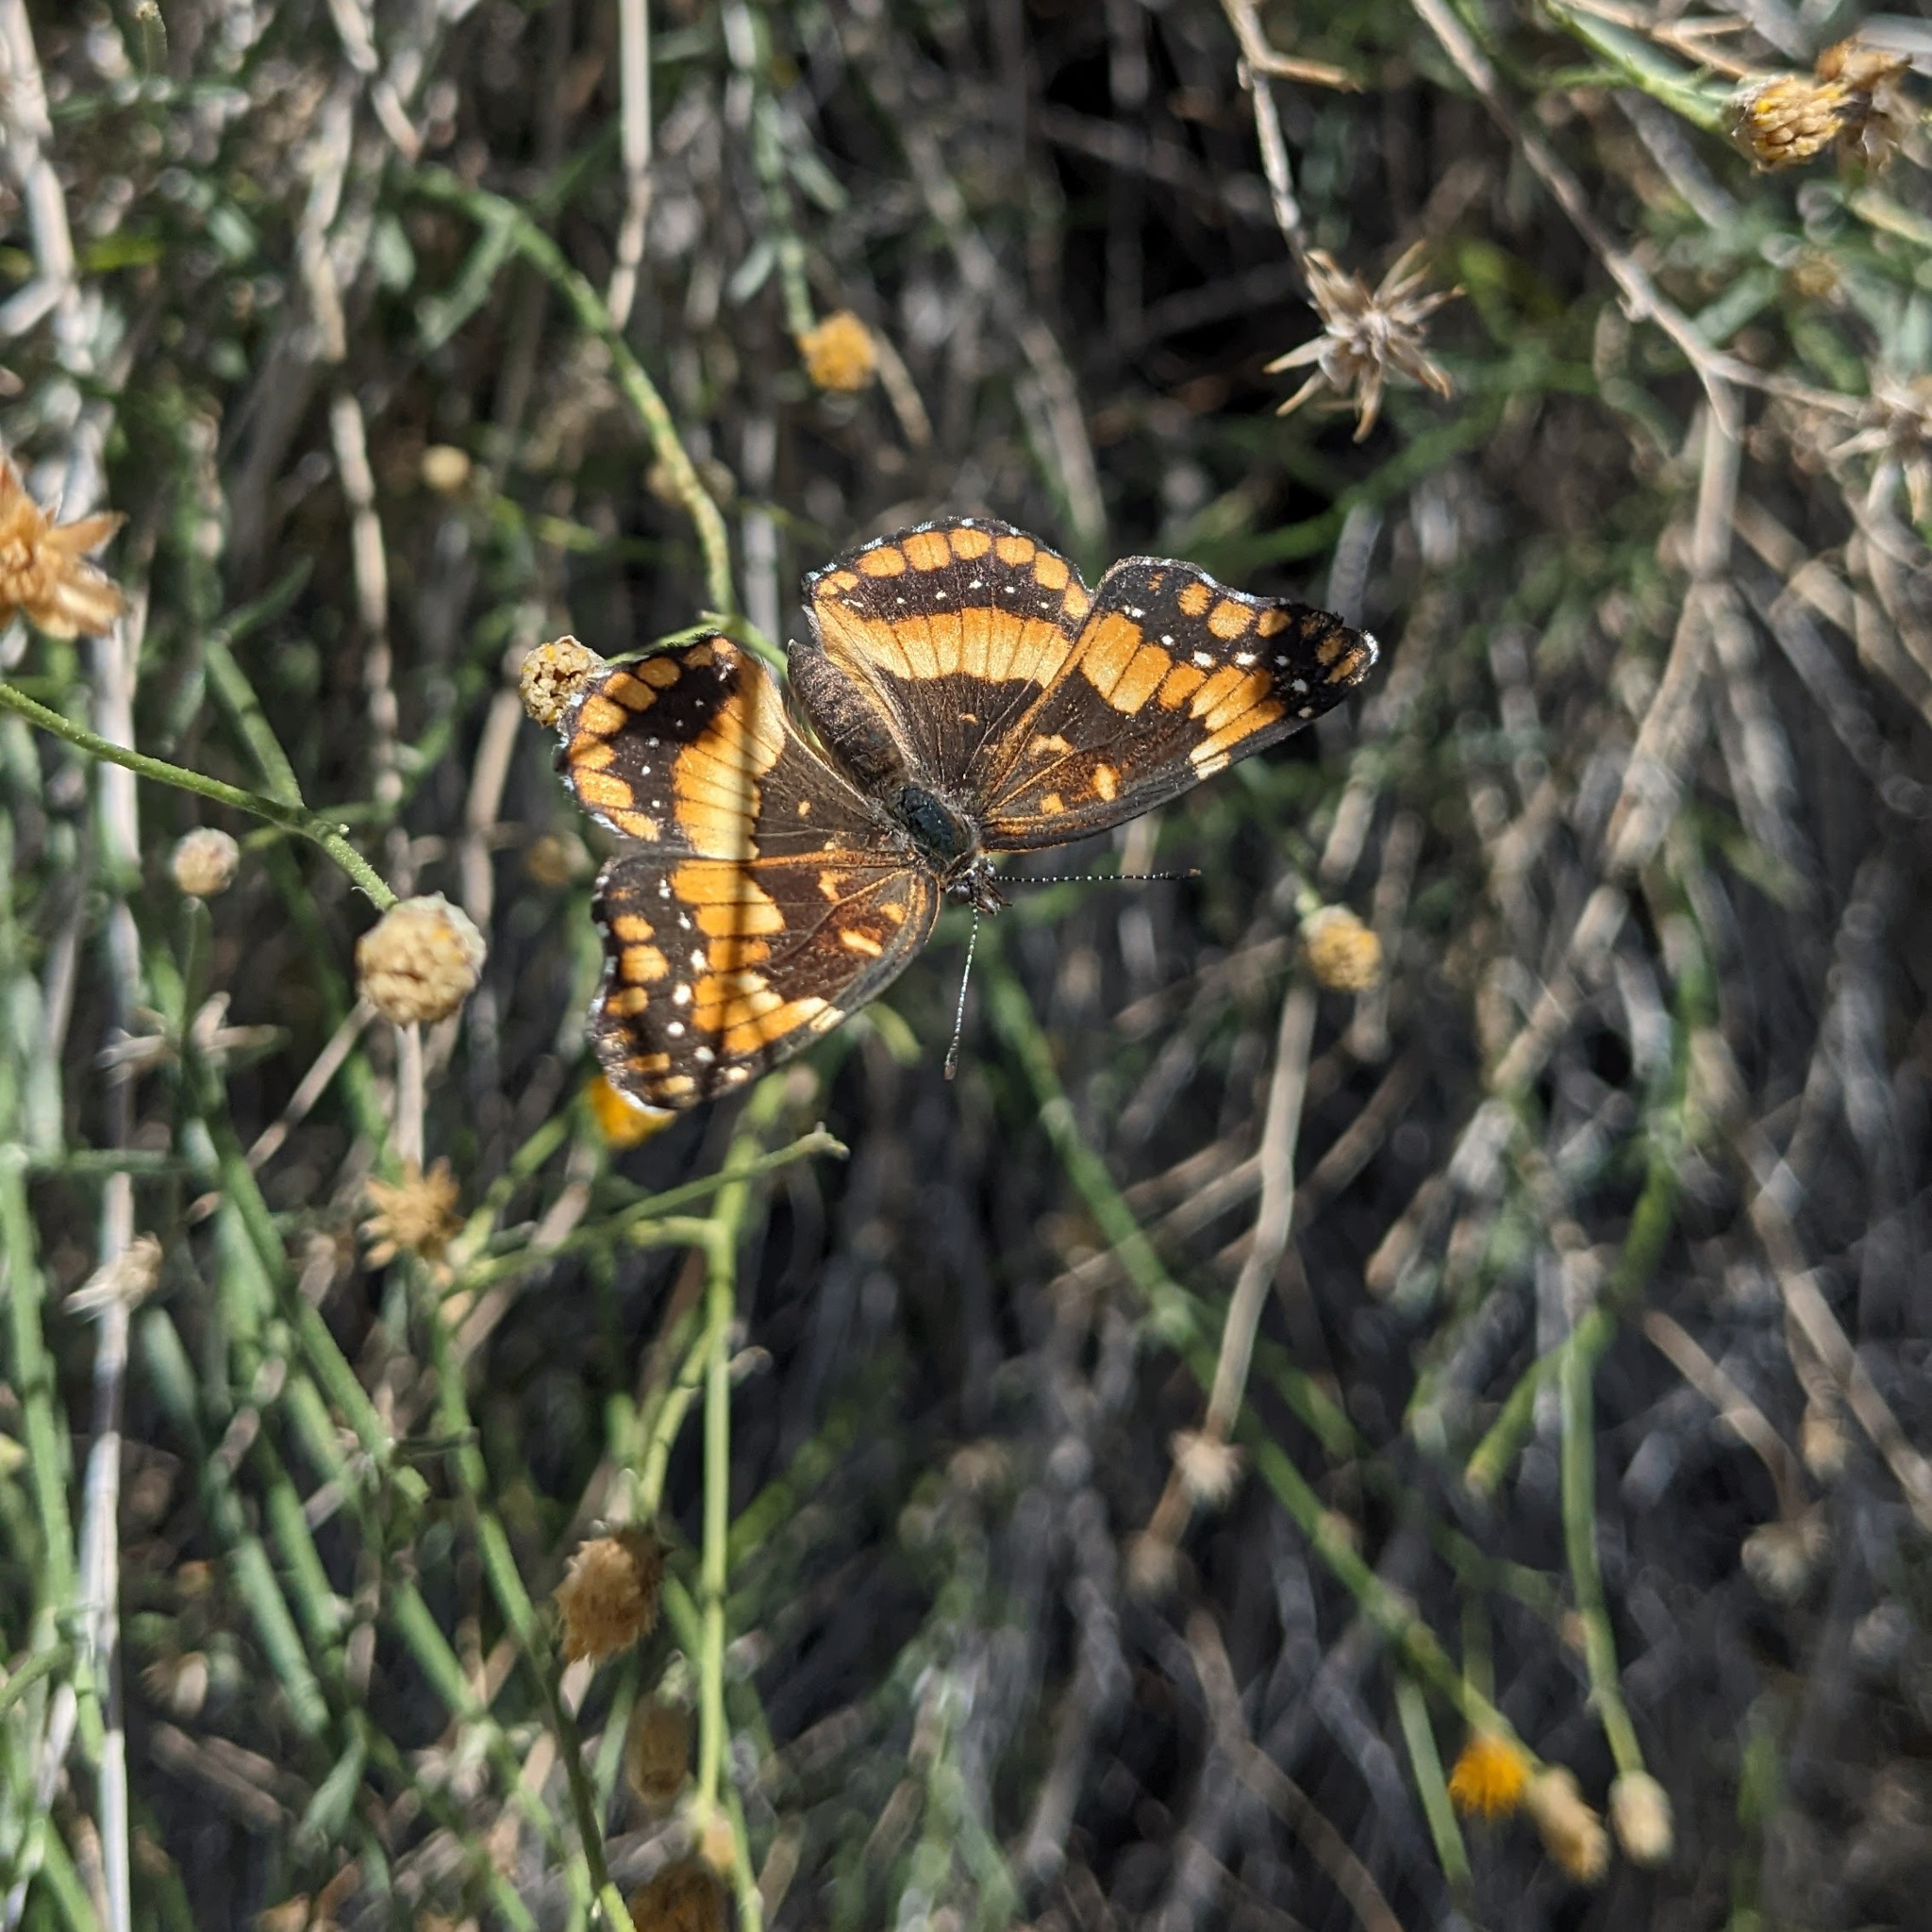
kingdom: Animalia
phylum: Arthropoda
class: Insecta
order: Lepidoptera
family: Nymphalidae
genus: Chlosyne
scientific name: Chlosyne californica
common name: California patch
